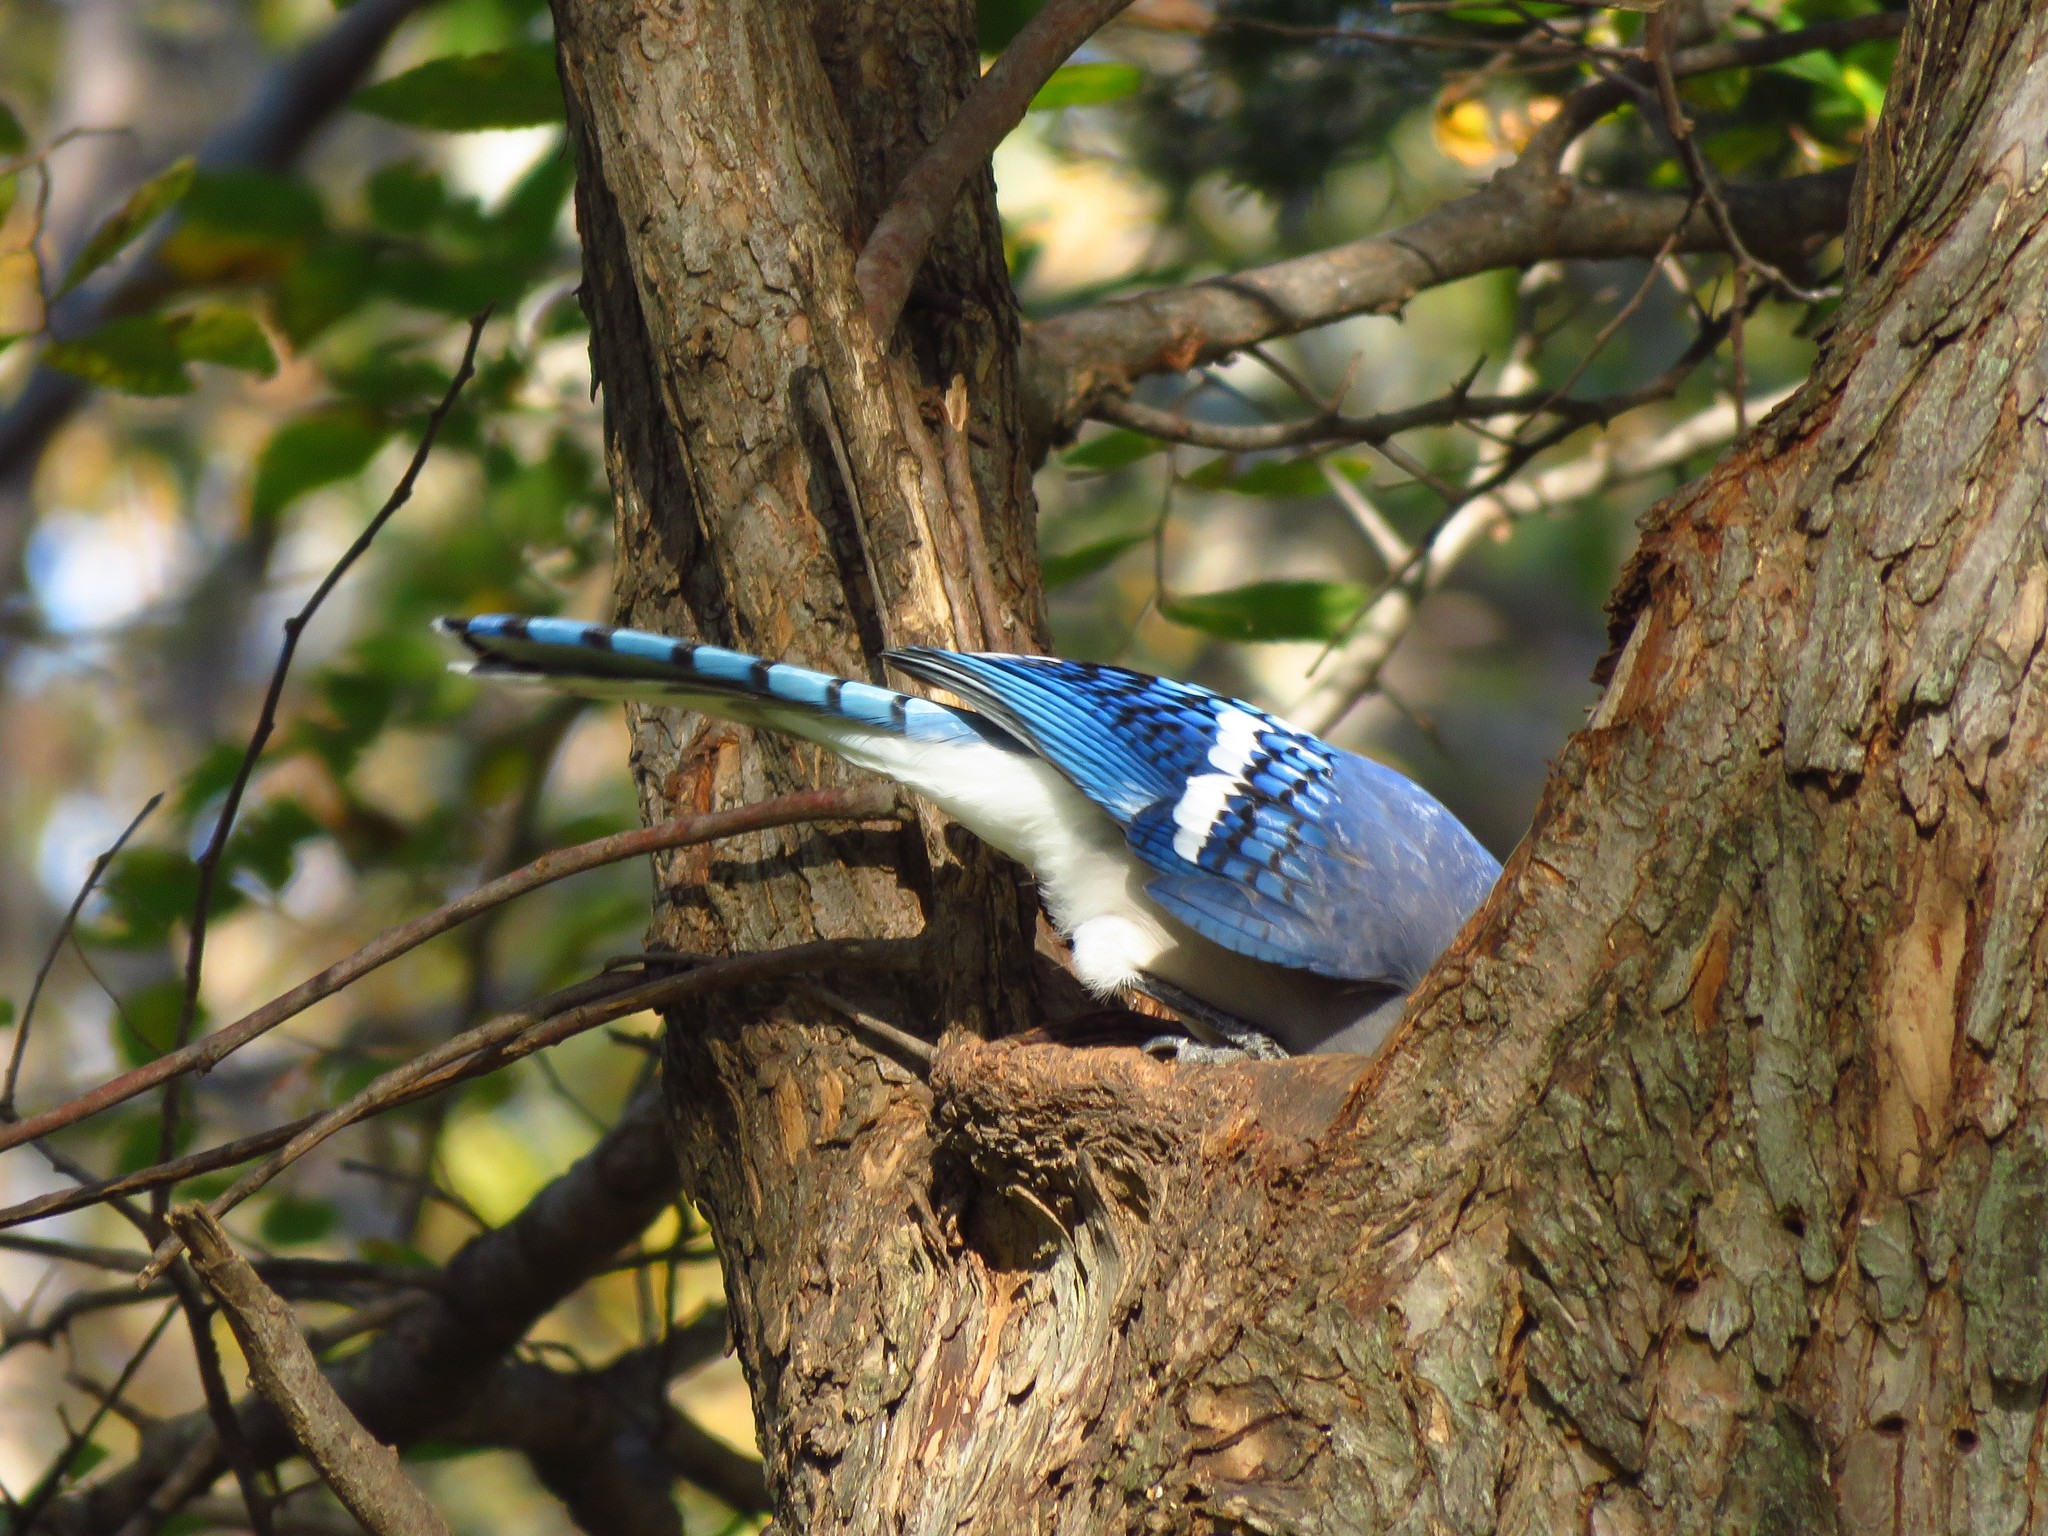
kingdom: Animalia
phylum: Chordata
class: Aves
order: Passeriformes
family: Corvidae
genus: Cyanocitta
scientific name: Cyanocitta cristata
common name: Blue jay
